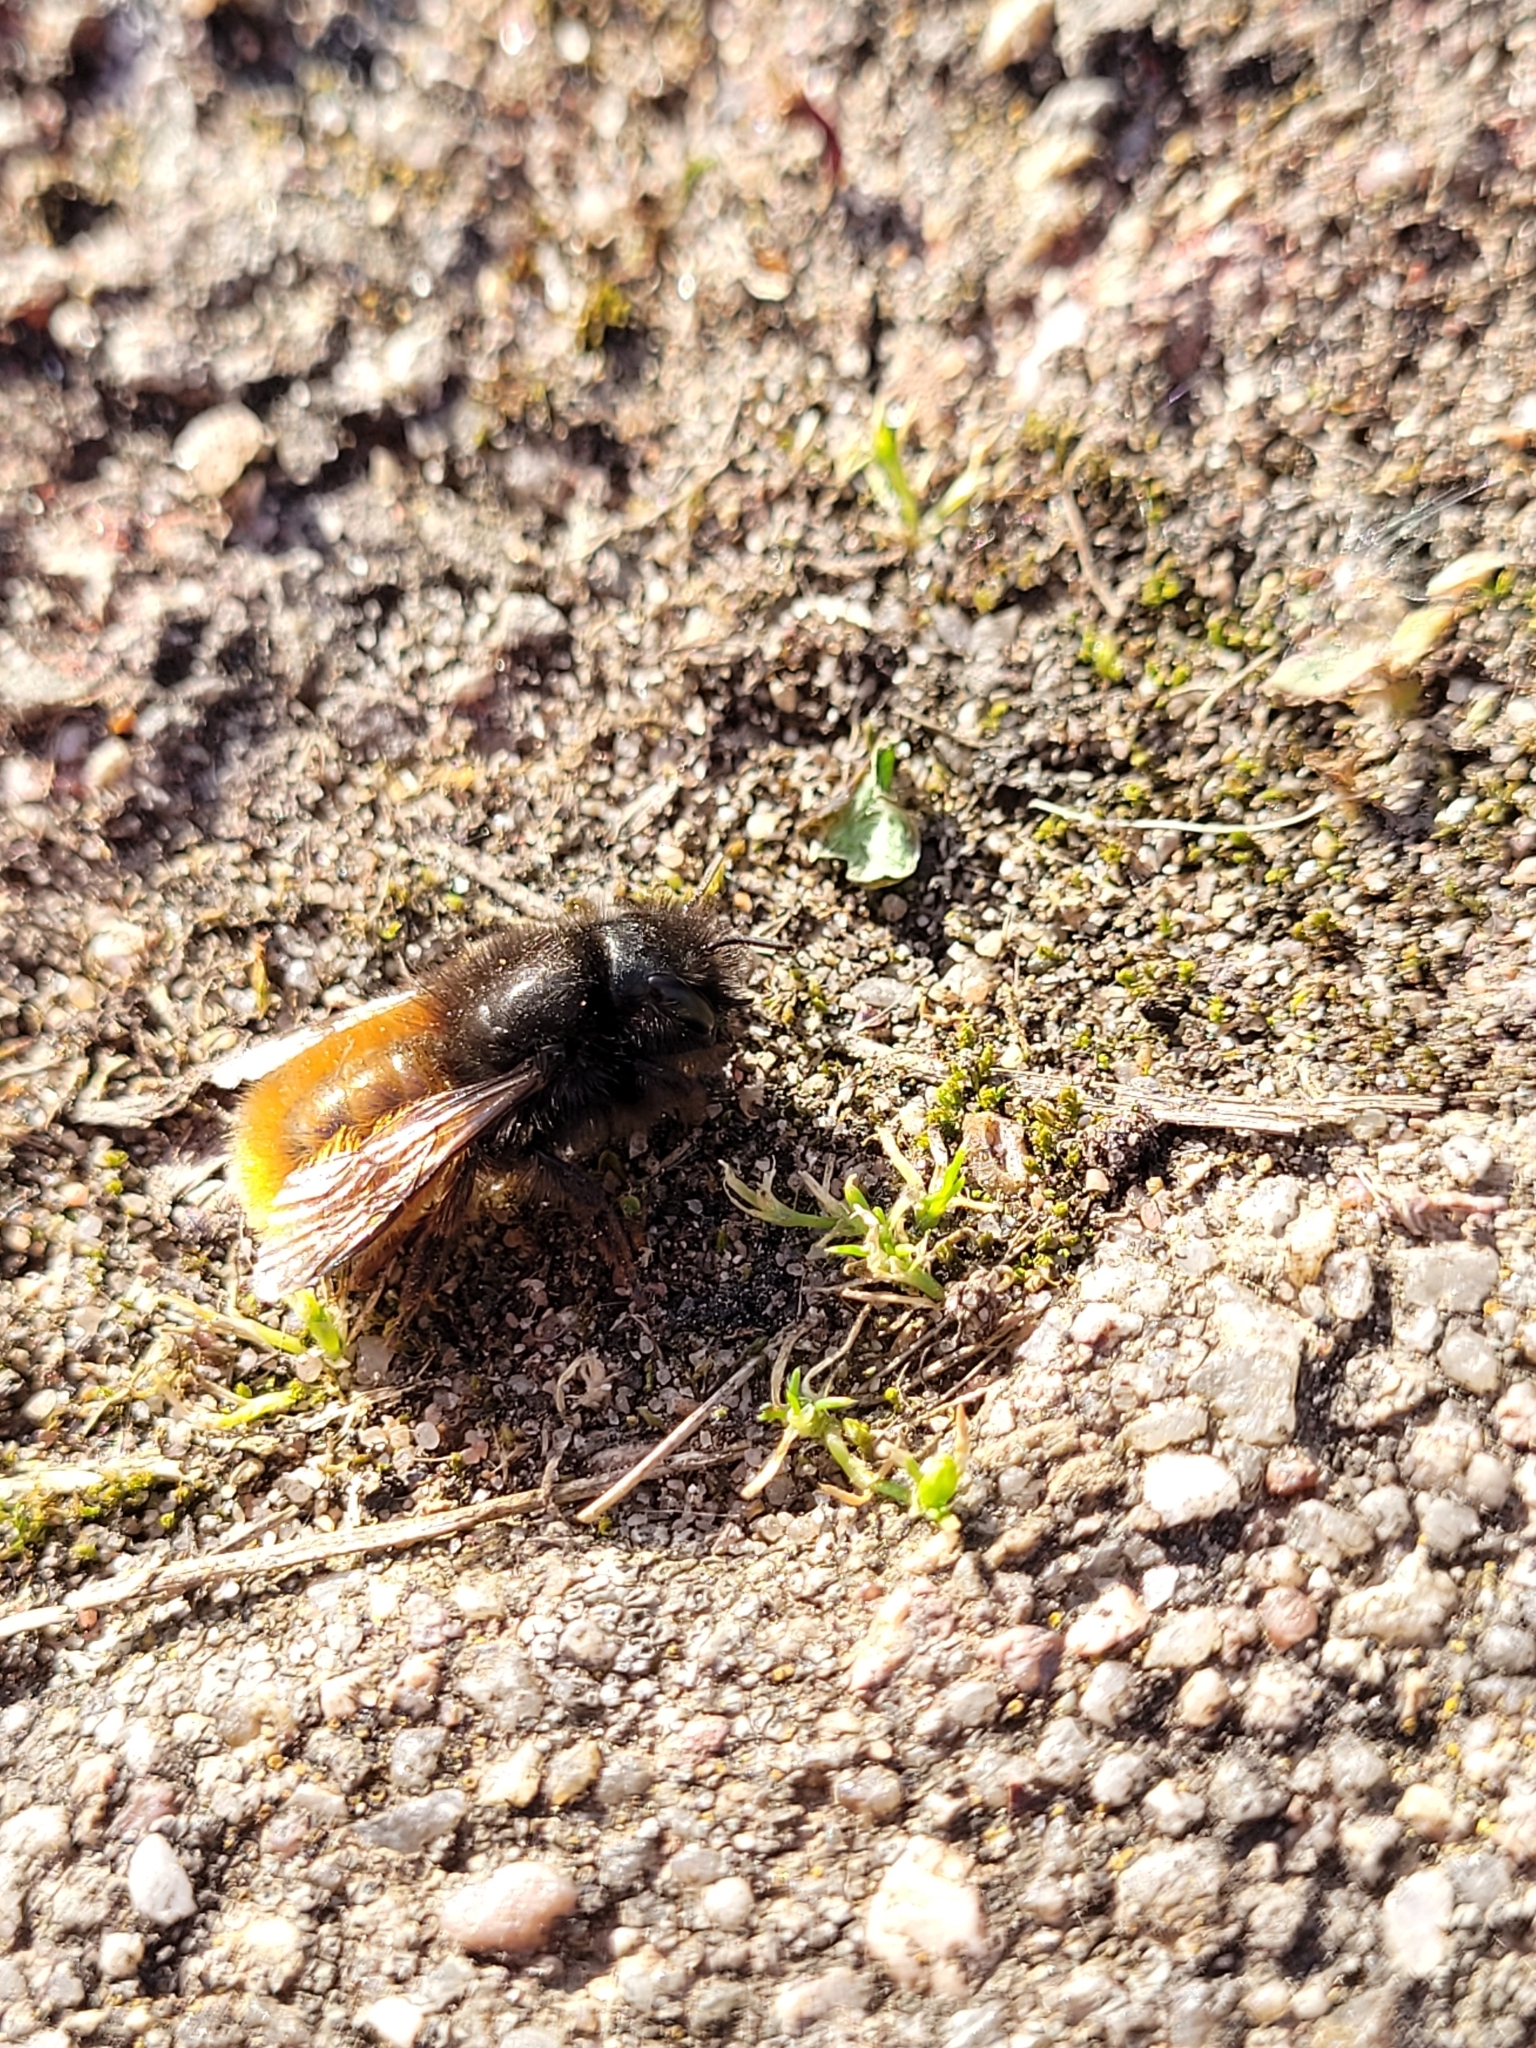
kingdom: Animalia
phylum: Arthropoda
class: Insecta
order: Hymenoptera
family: Megachilidae
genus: Osmia
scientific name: Osmia cornuta
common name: Mason bee
